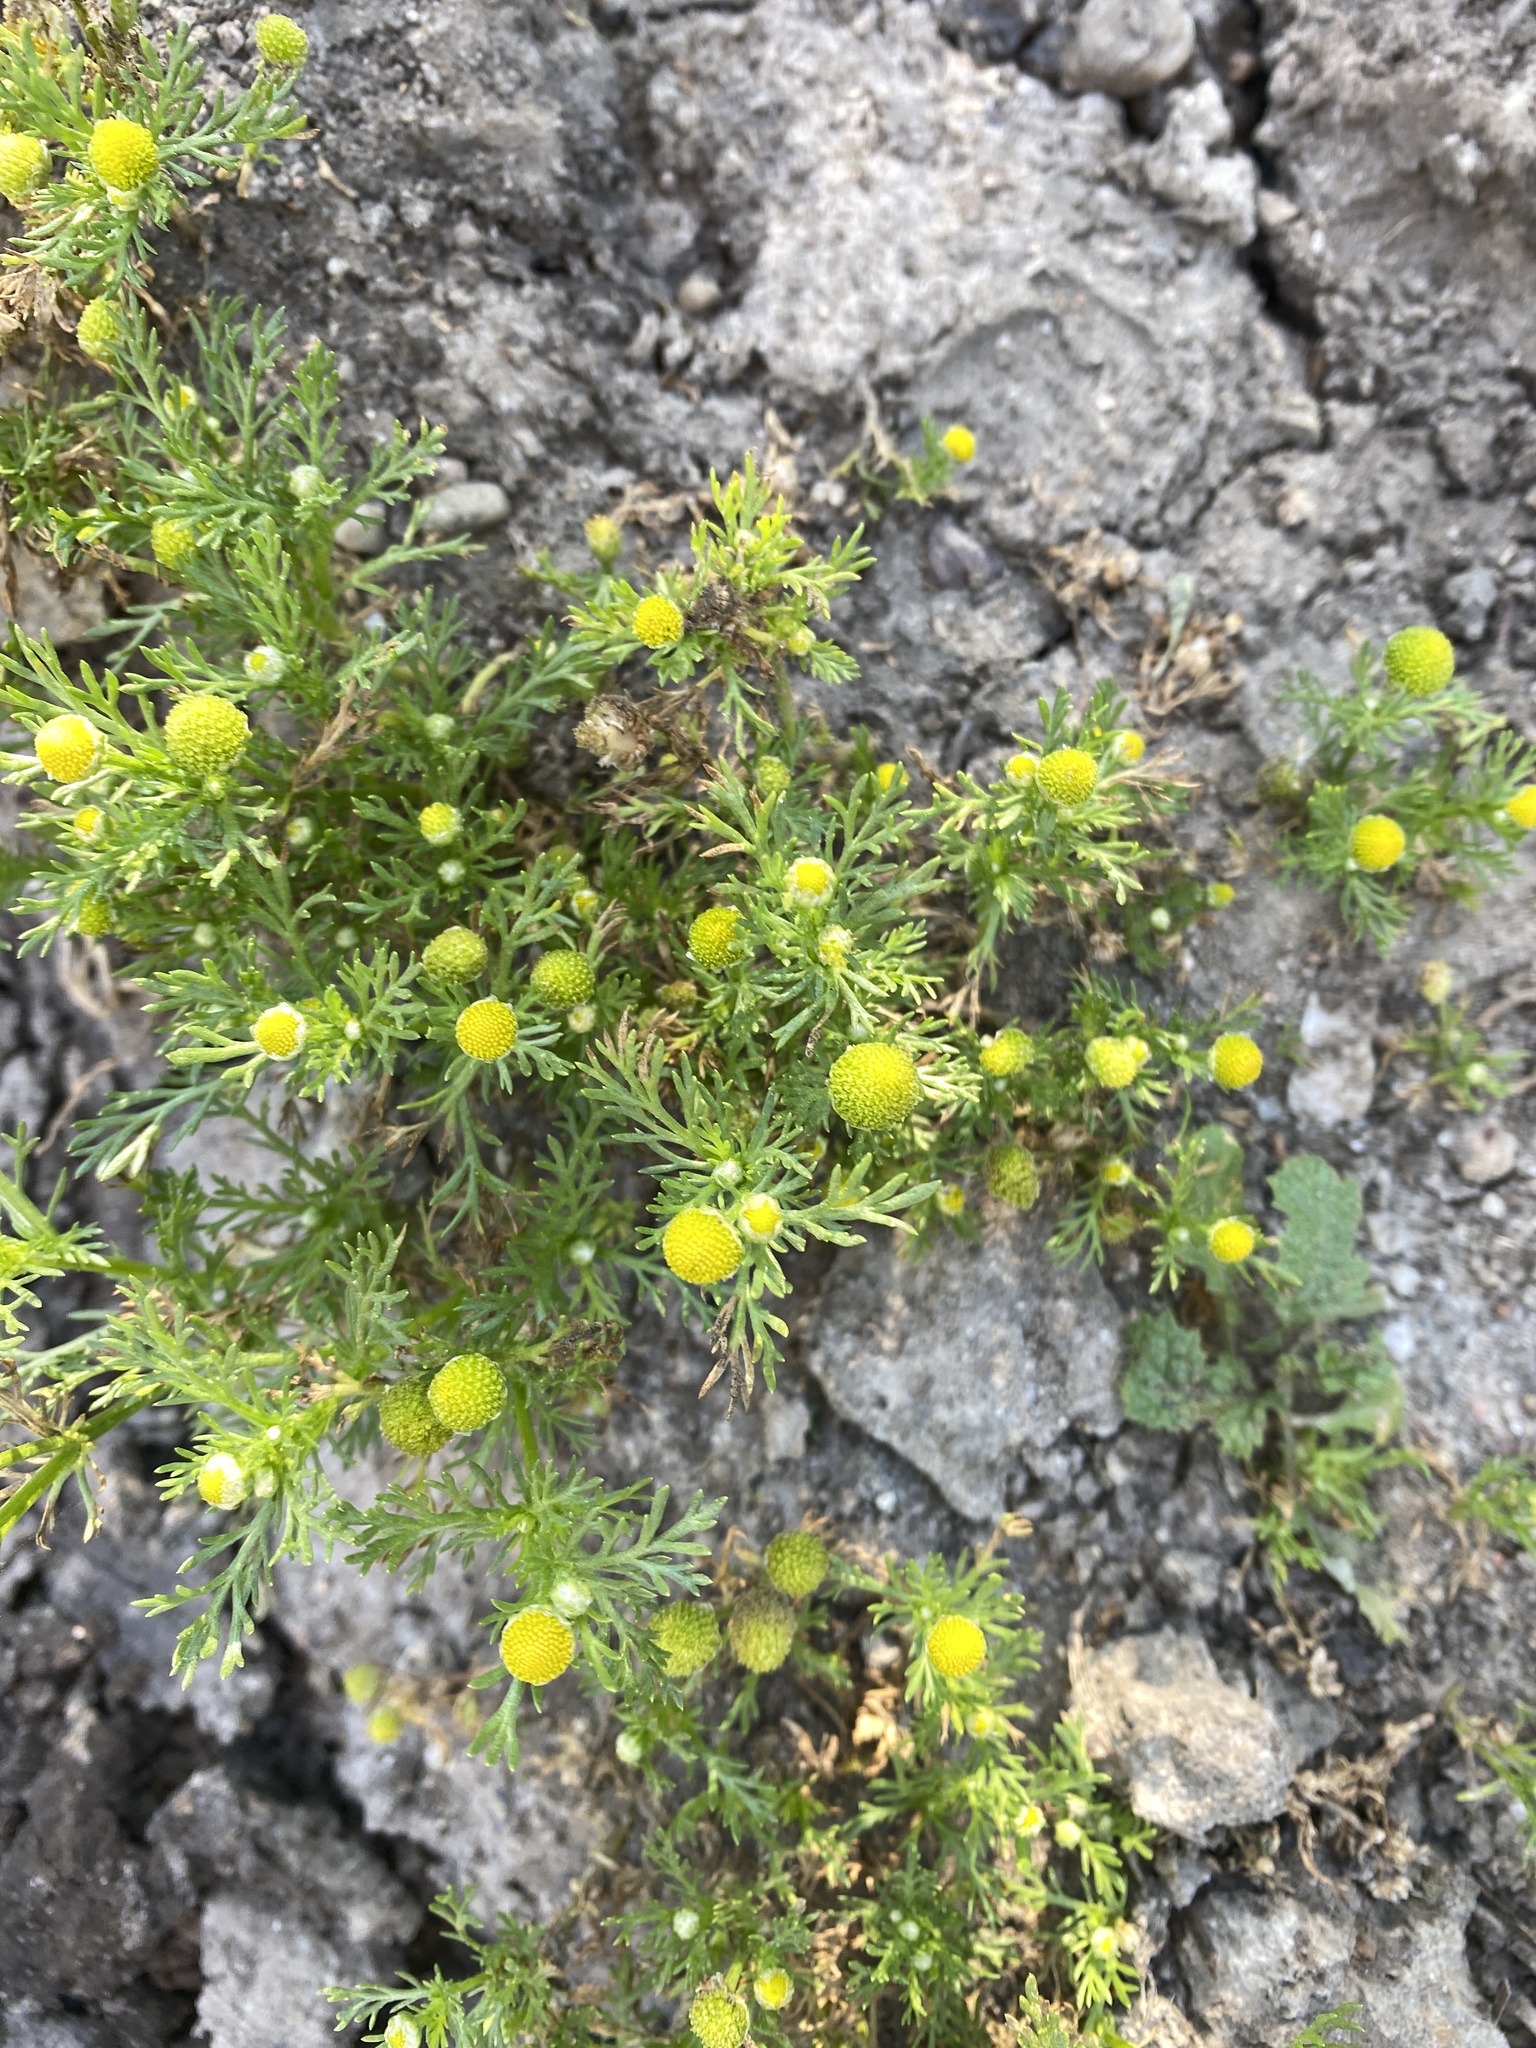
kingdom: Plantae
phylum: Tracheophyta
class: Magnoliopsida
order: Asterales
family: Asteraceae
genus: Matricaria
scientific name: Matricaria discoidea
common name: Disc mayweed
